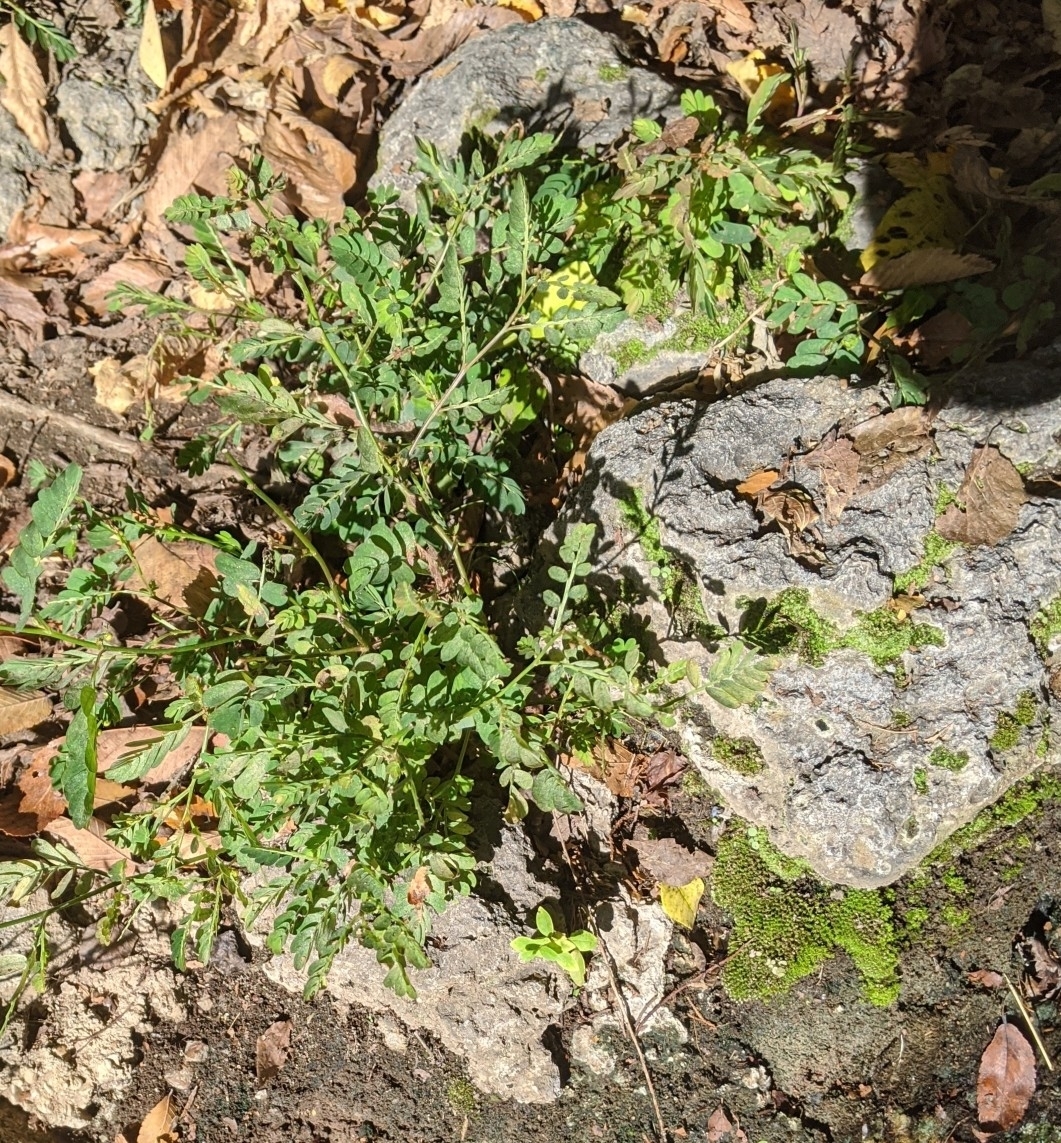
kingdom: Plantae
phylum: Tracheophyta
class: Magnoliopsida
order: Malpighiales
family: Phyllanthaceae
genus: Phyllanthus
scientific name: Phyllanthus urinaria
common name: Chamber bitter
